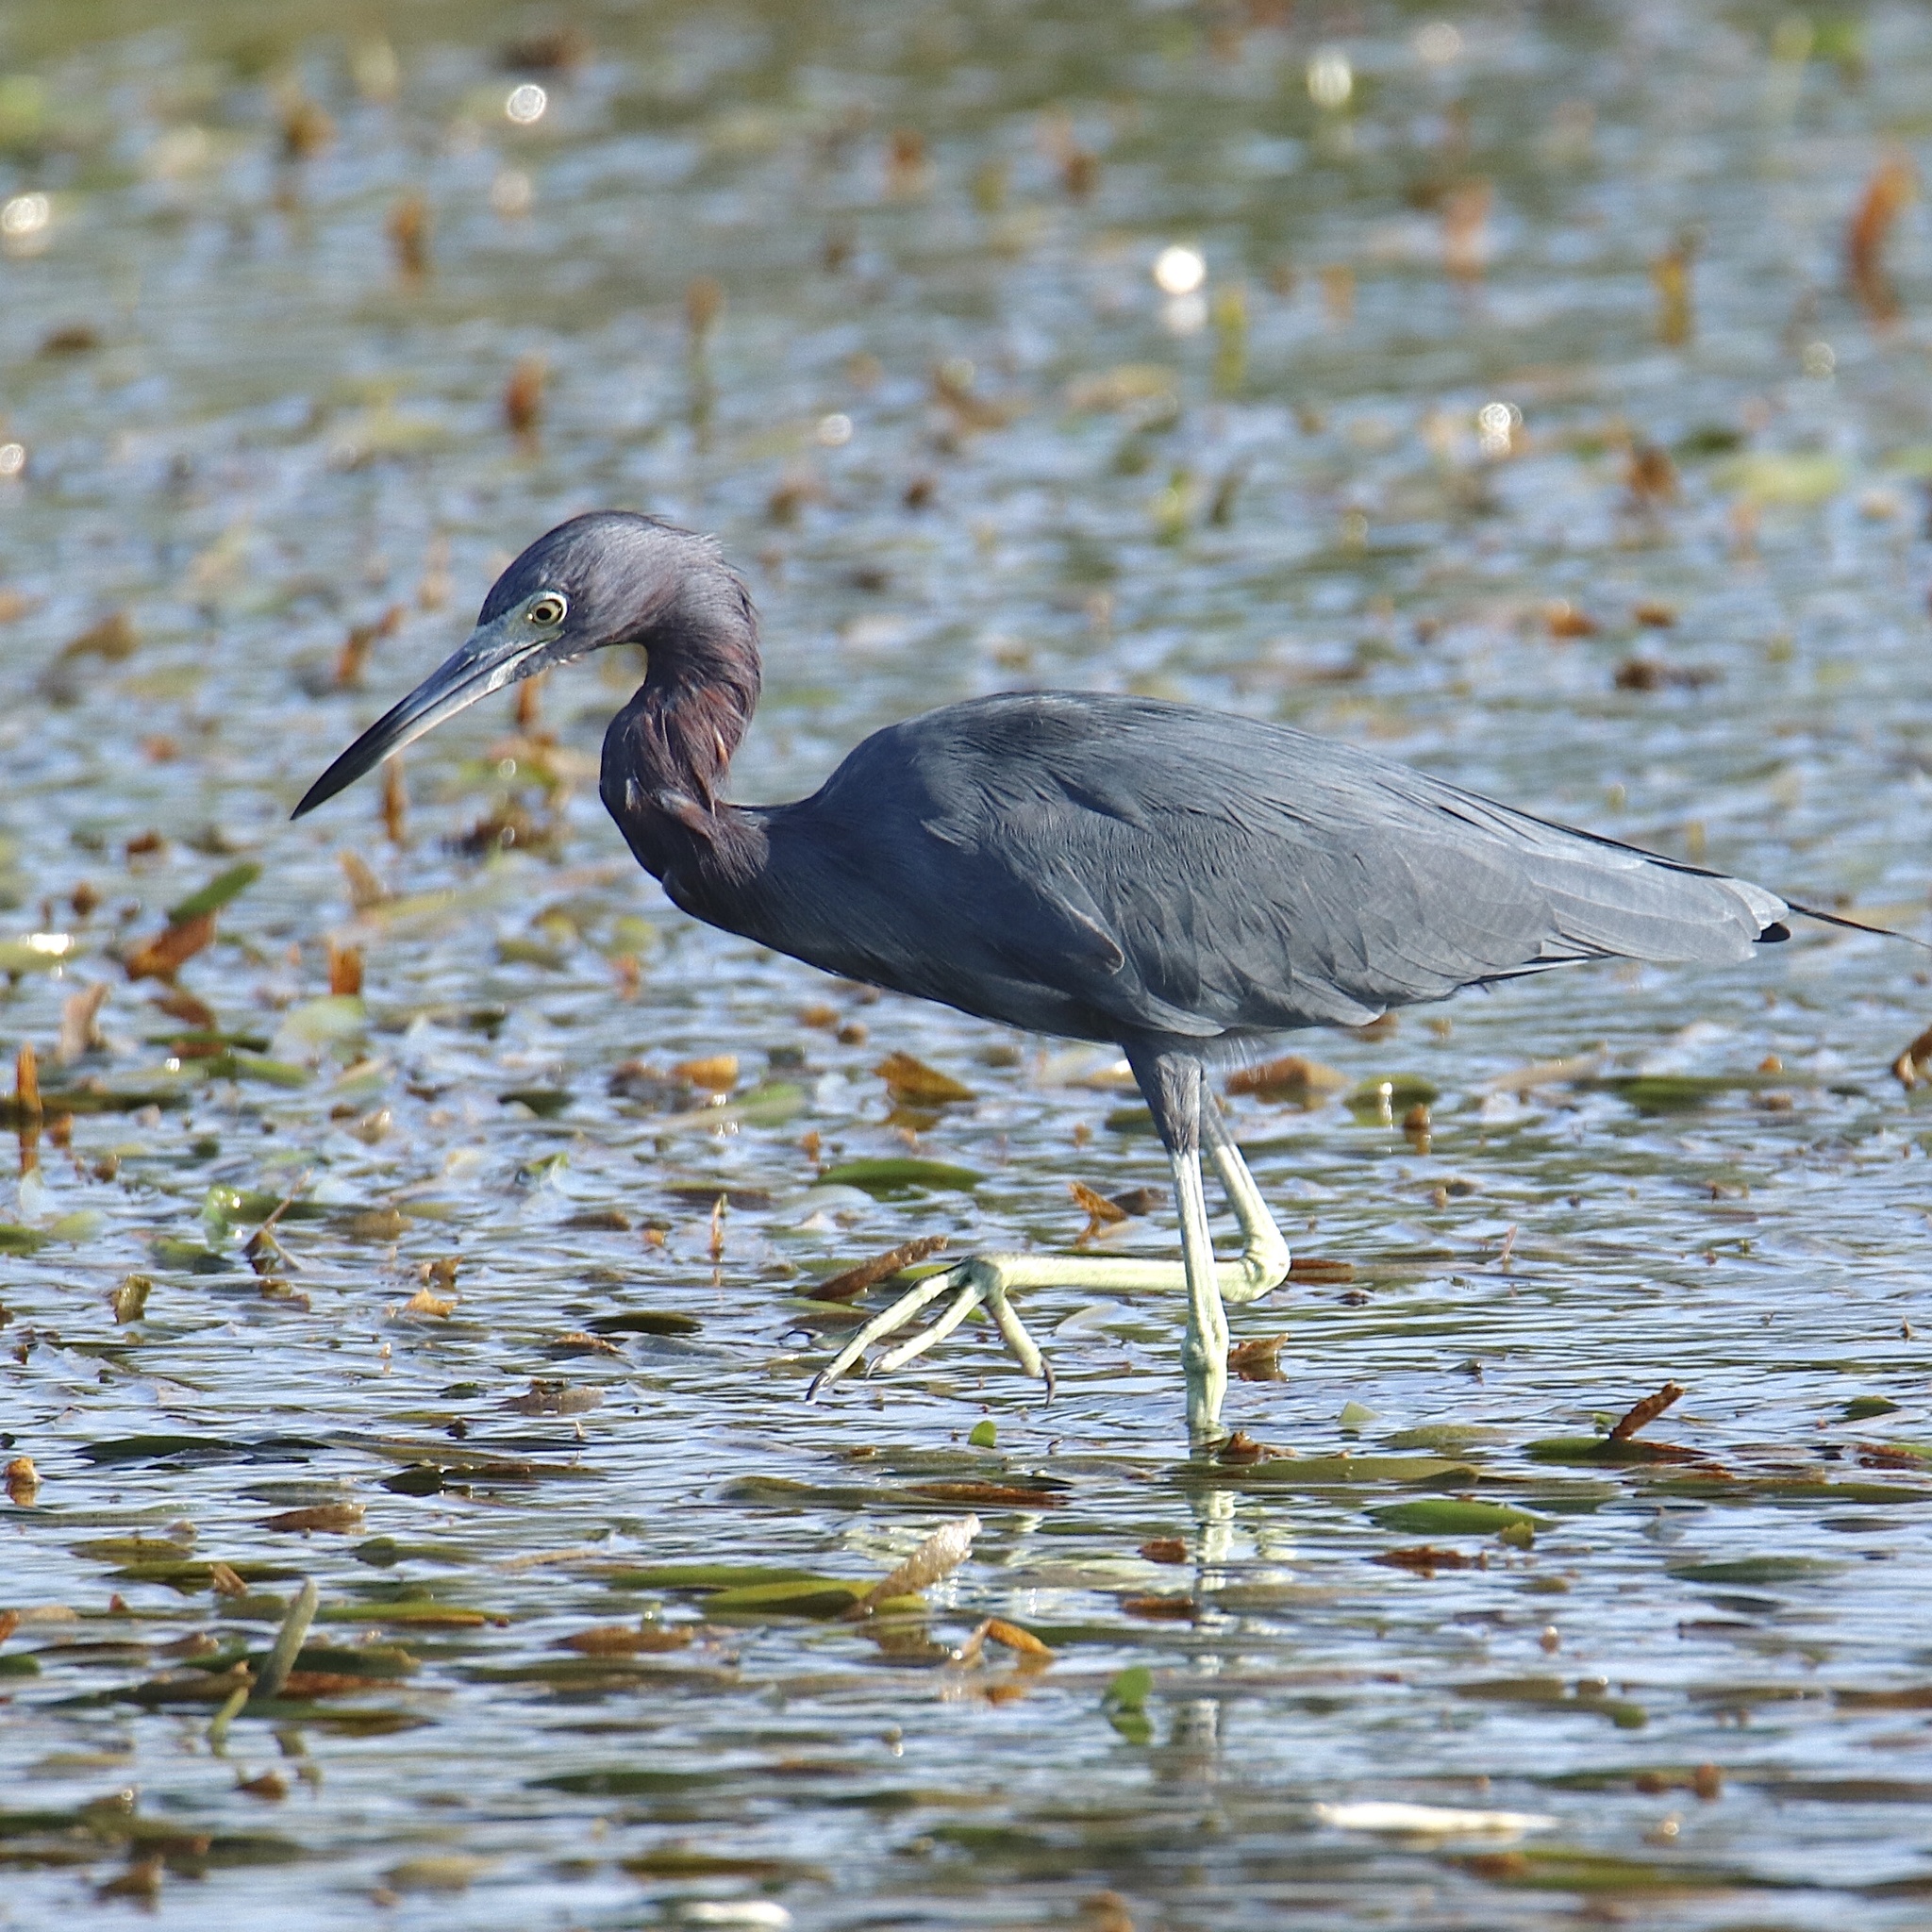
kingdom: Animalia
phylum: Chordata
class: Aves
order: Pelecaniformes
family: Ardeidae
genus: Egretta
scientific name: Egretta caerulea
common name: Little blue heron
